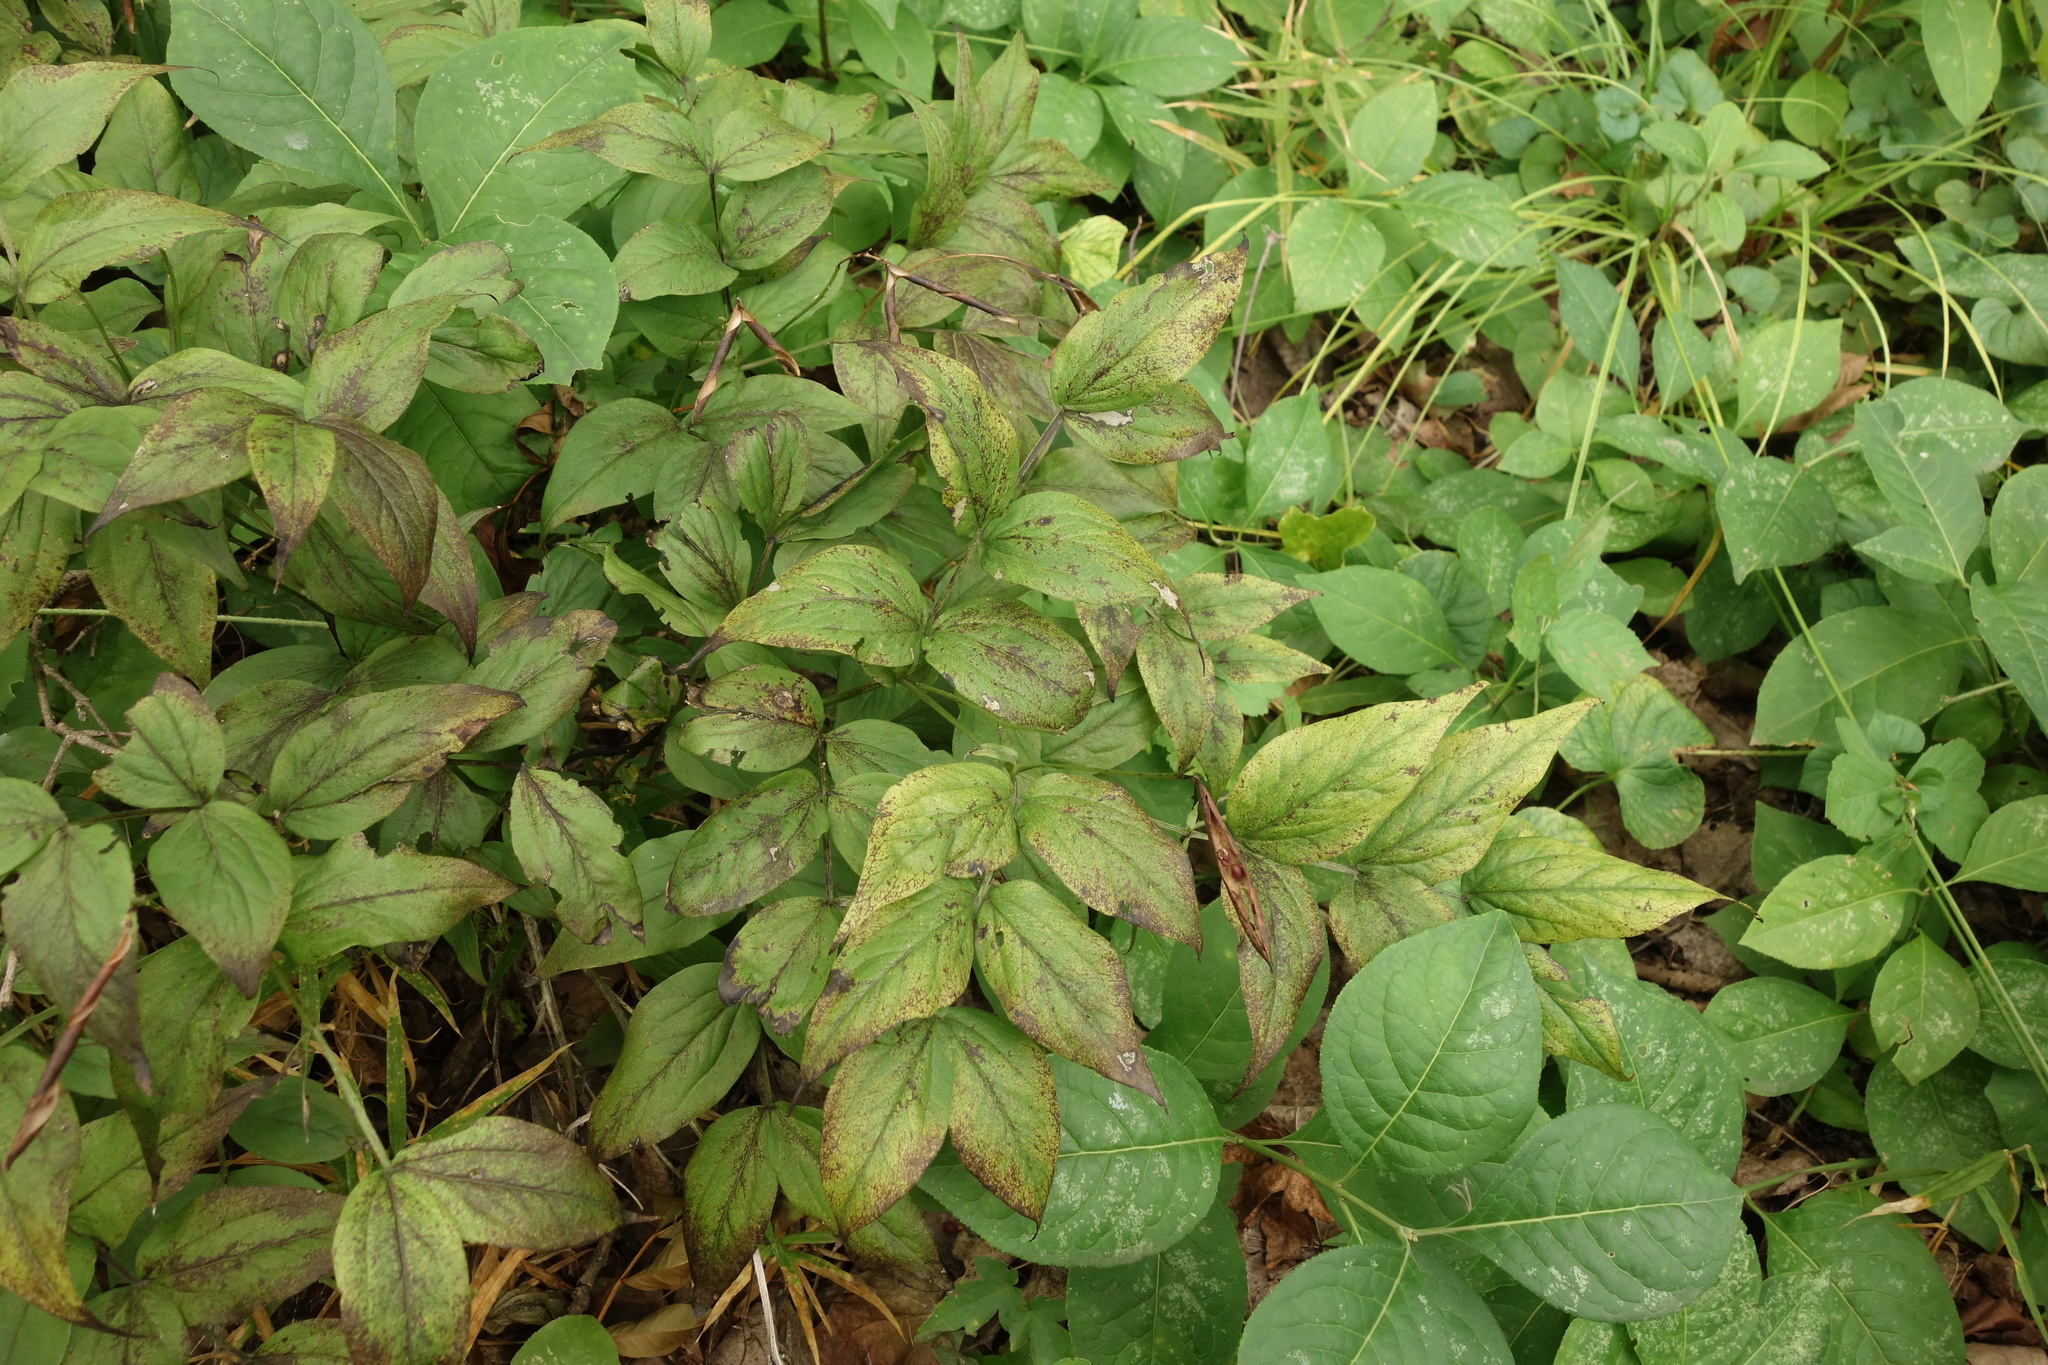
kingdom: Plantae
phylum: Tracheophyta
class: Magnoliopsida
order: Fabales
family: Fabaceae
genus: Lathyrus
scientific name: Lathyrus vernus
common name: Spring pea
